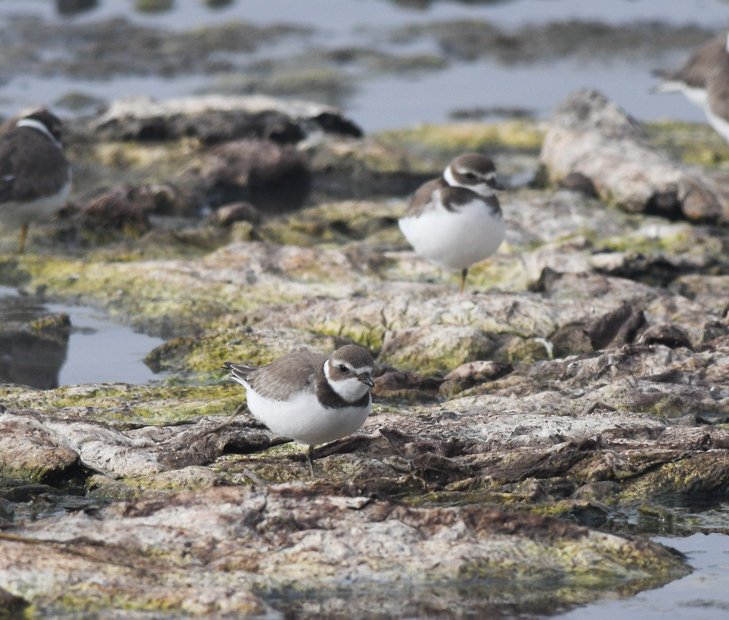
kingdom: Animalia
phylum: Chordata
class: Aves
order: Charadriiformes
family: Charadriidae
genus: Charadrius
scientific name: Charadrius semipalmatus
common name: Semipalmated plover
